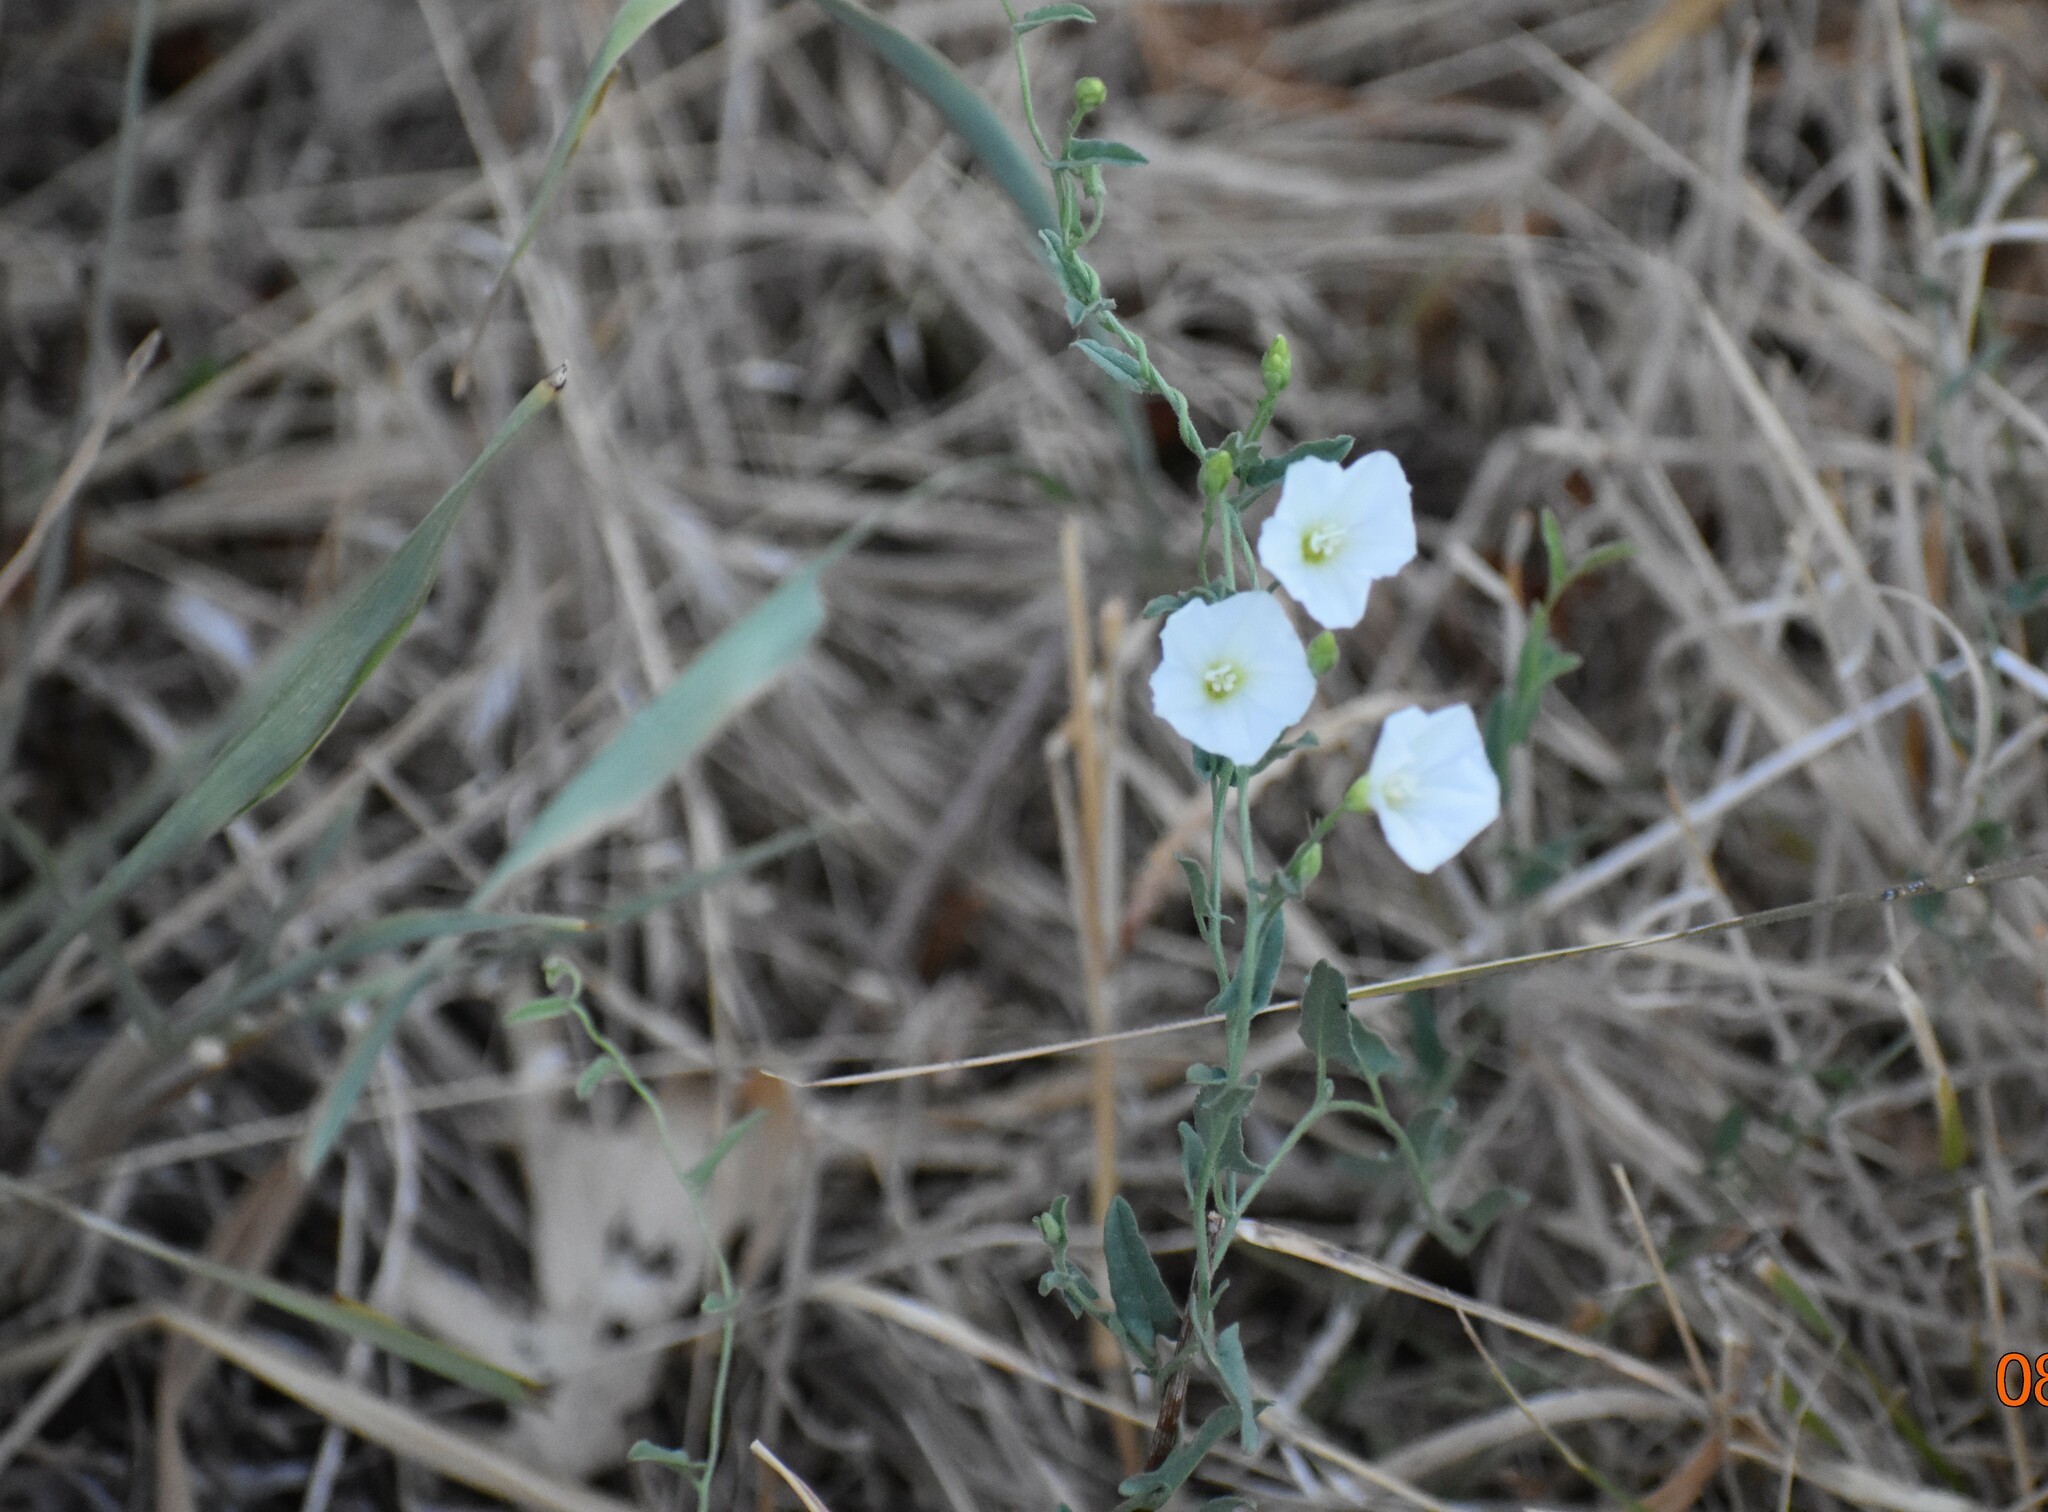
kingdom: Plantae
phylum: Tracheophyta
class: Magnoliopsida
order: Solanales
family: Convolvulaceae
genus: Convolvulus
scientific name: Convolvulus arvensis
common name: Field bindweed
